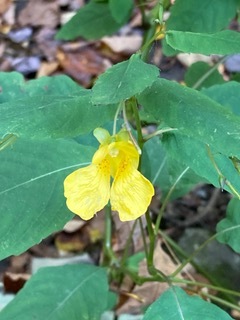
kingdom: Plantae
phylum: Tracheophyta
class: Magnoliopsida
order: Ericales
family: Balsaminaceae
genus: Impatiens
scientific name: Impatiens pallida
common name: Pale snapweed
